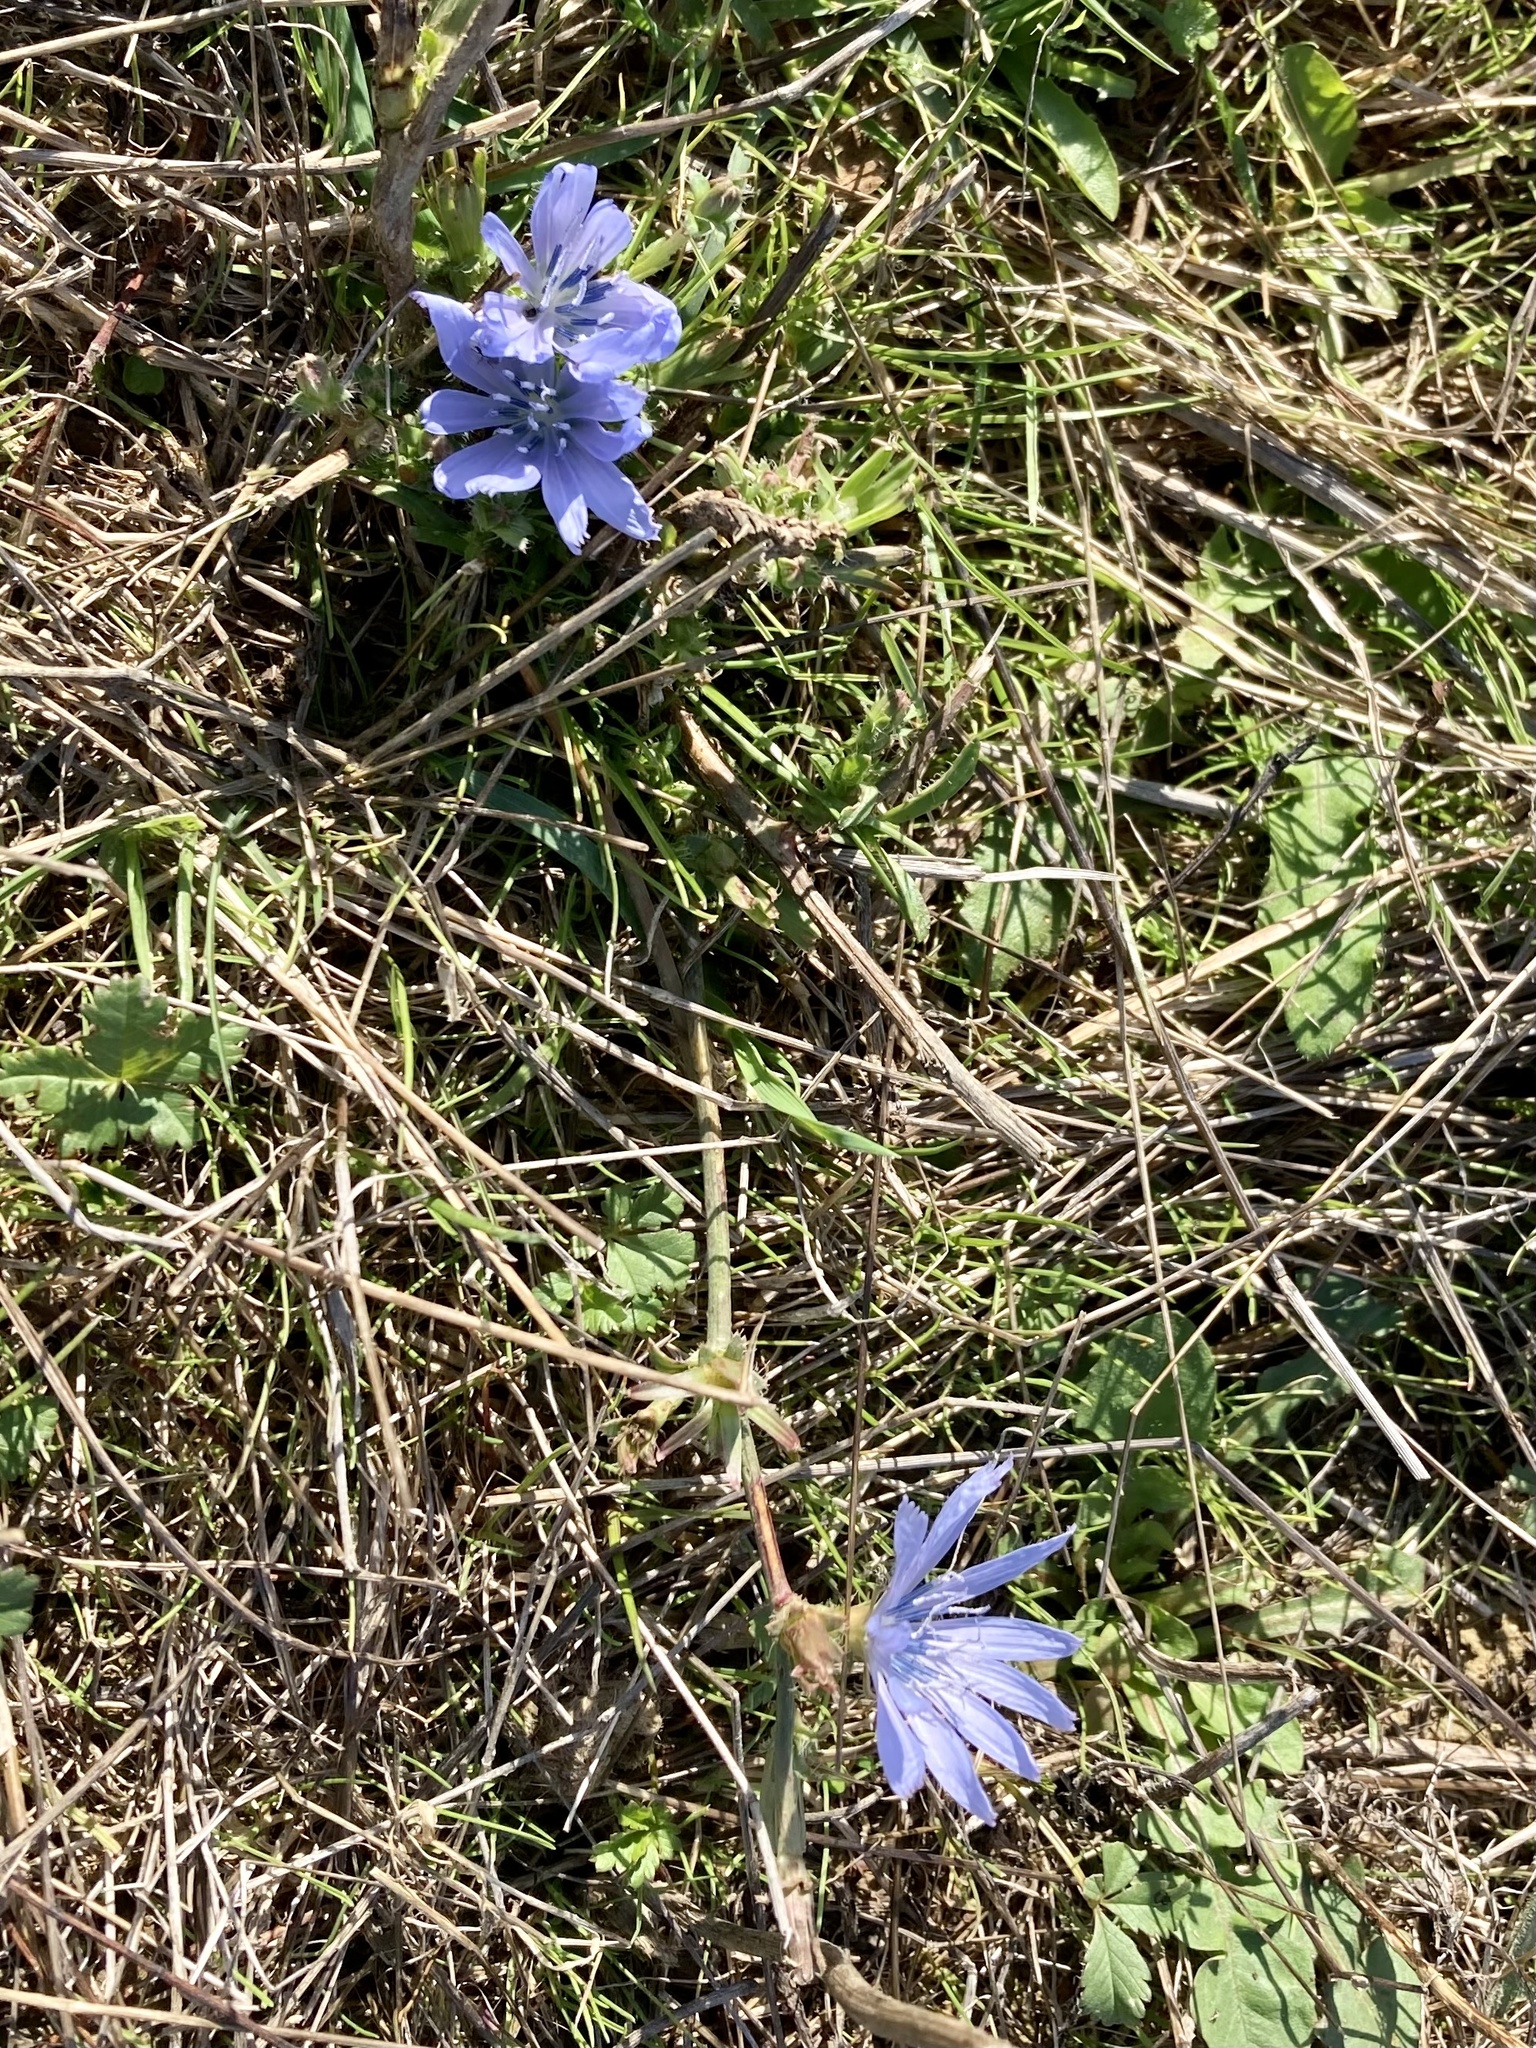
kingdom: Plantae
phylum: Tracheophyta
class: Magnoliopsida
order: Asterales
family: Asteraceae
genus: Cichorium
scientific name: Cichorium intybus
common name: Chicory
